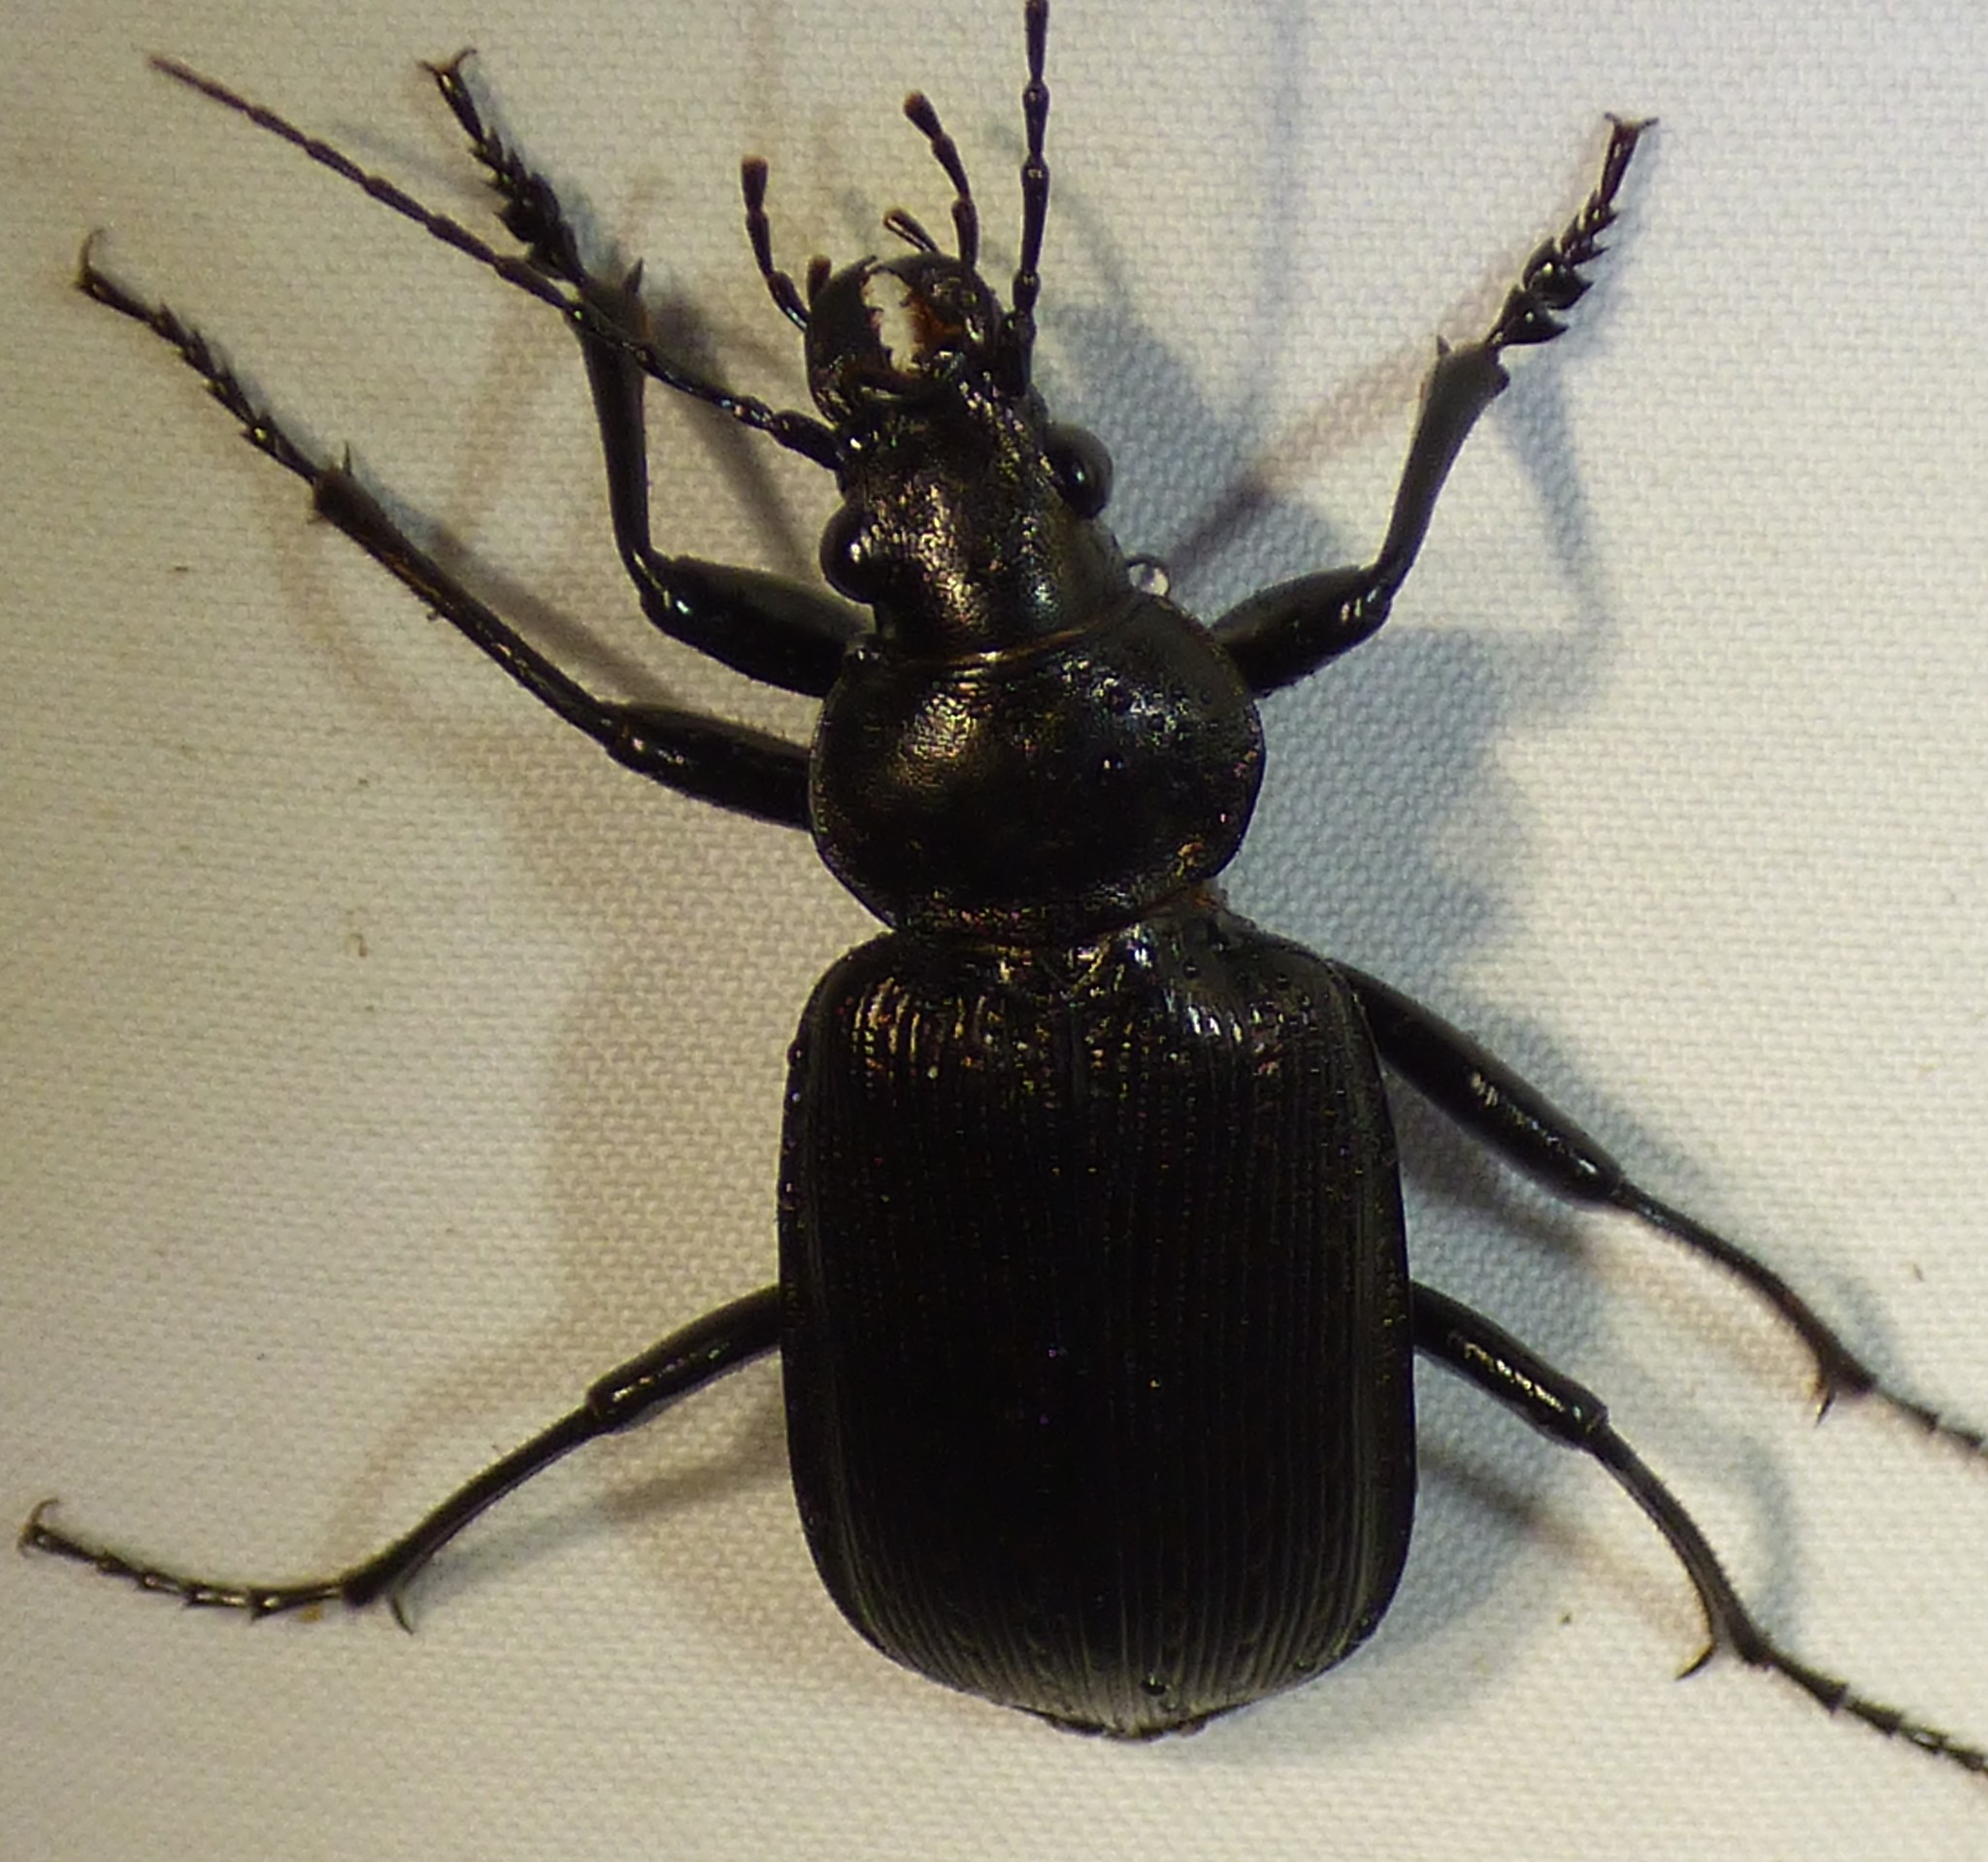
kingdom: Animalia
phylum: Arthropoda
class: Insecta
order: Coleoptera
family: Carabidae
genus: Calosoma
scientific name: Calosoma sayi
